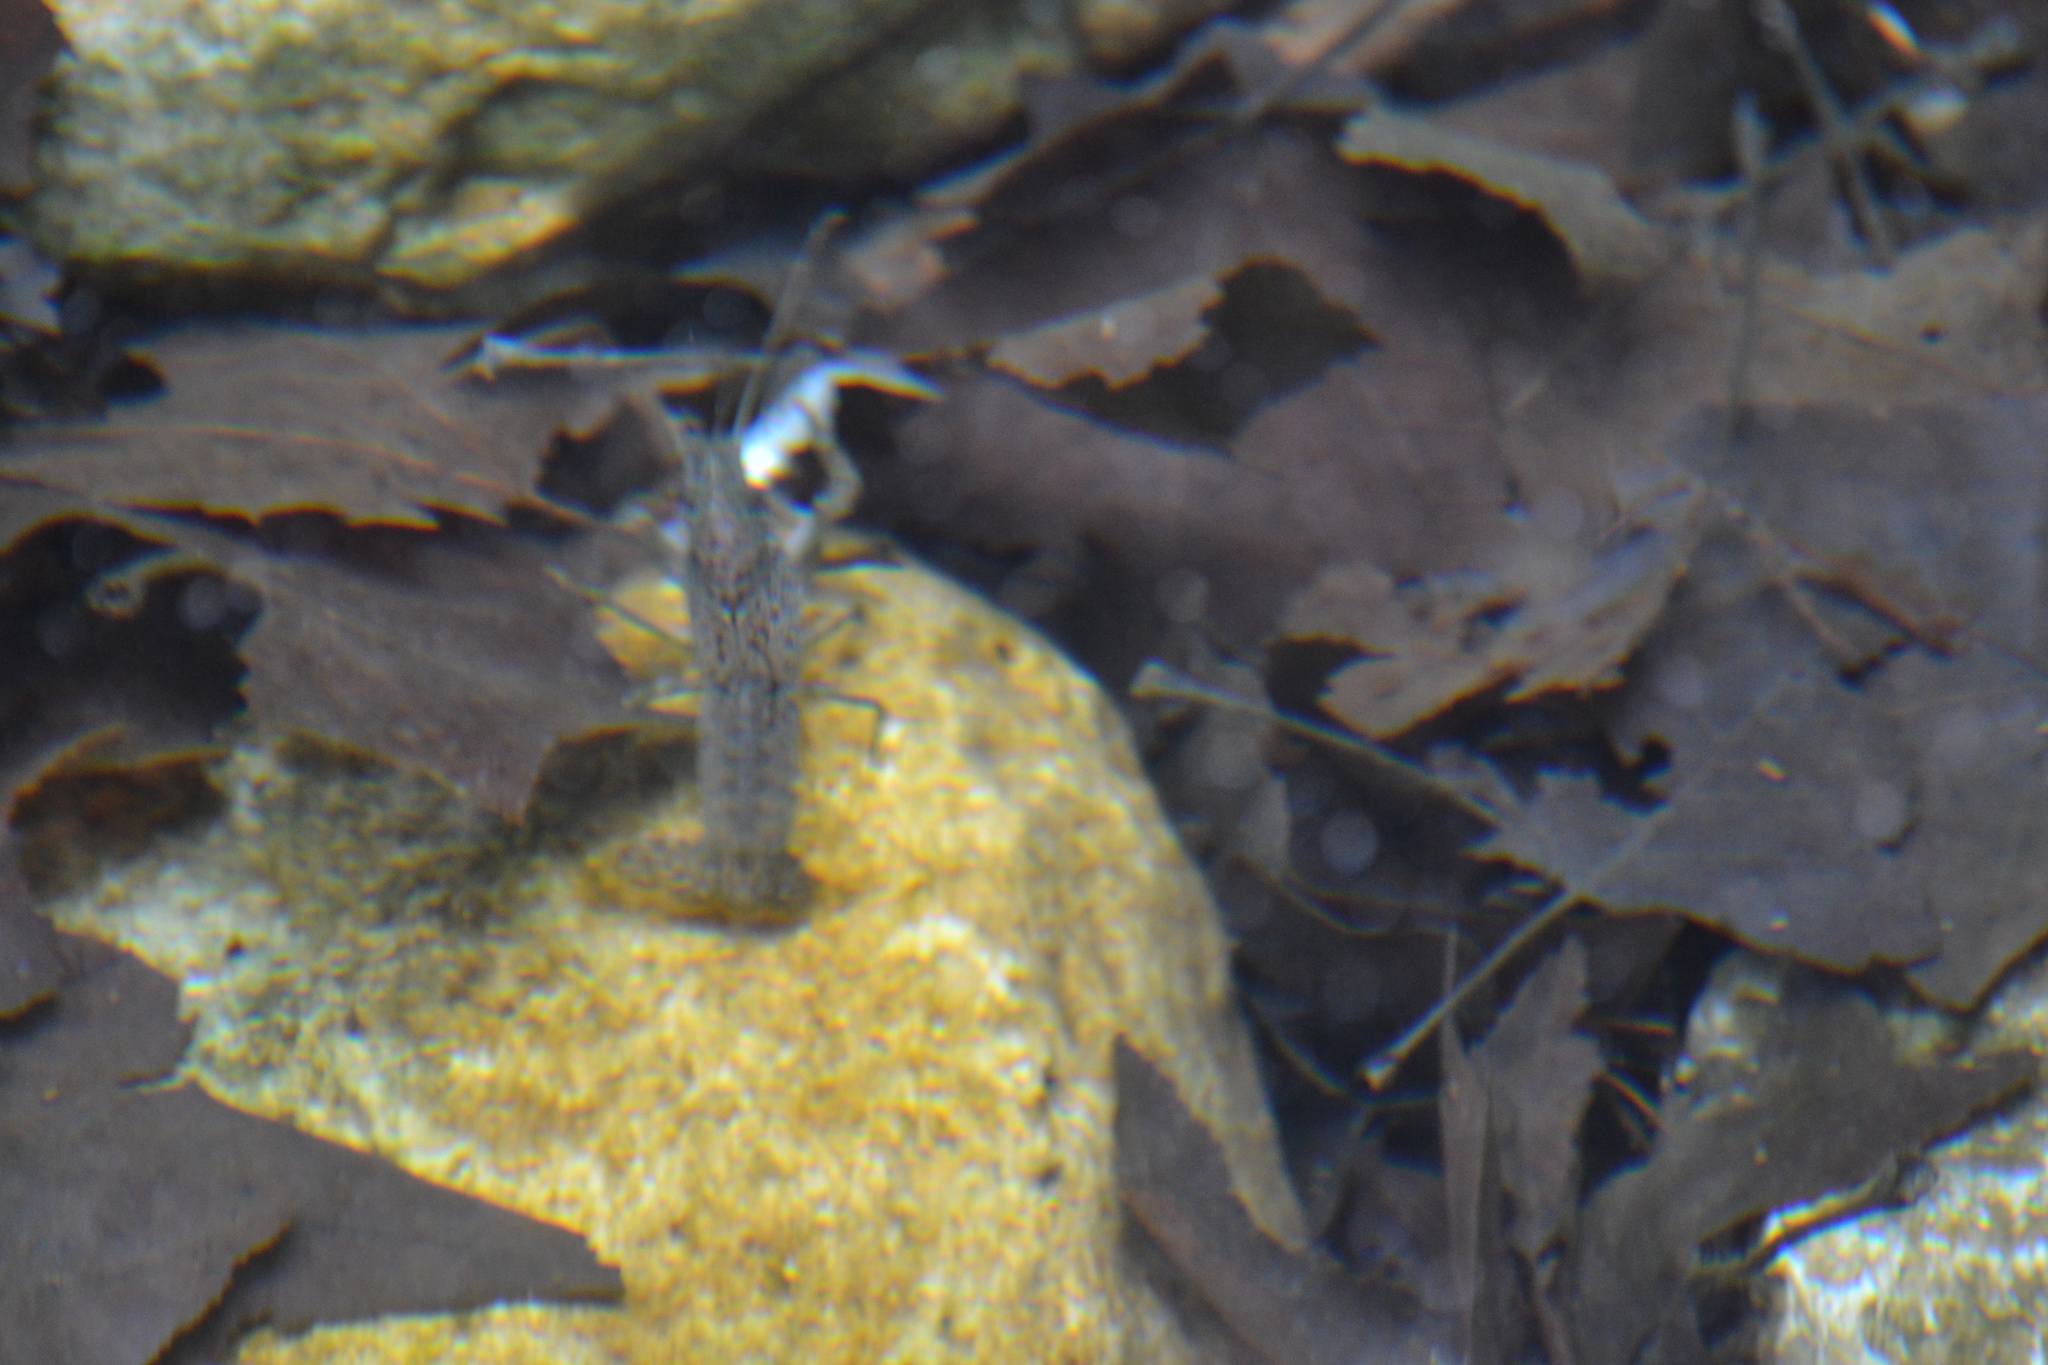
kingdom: Animalia
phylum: Arthropoda
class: Malacostraca
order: Decapoda
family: Cambaridae
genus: Procambarus
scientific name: Procambarus clarkii
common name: Red swamp crayfish
